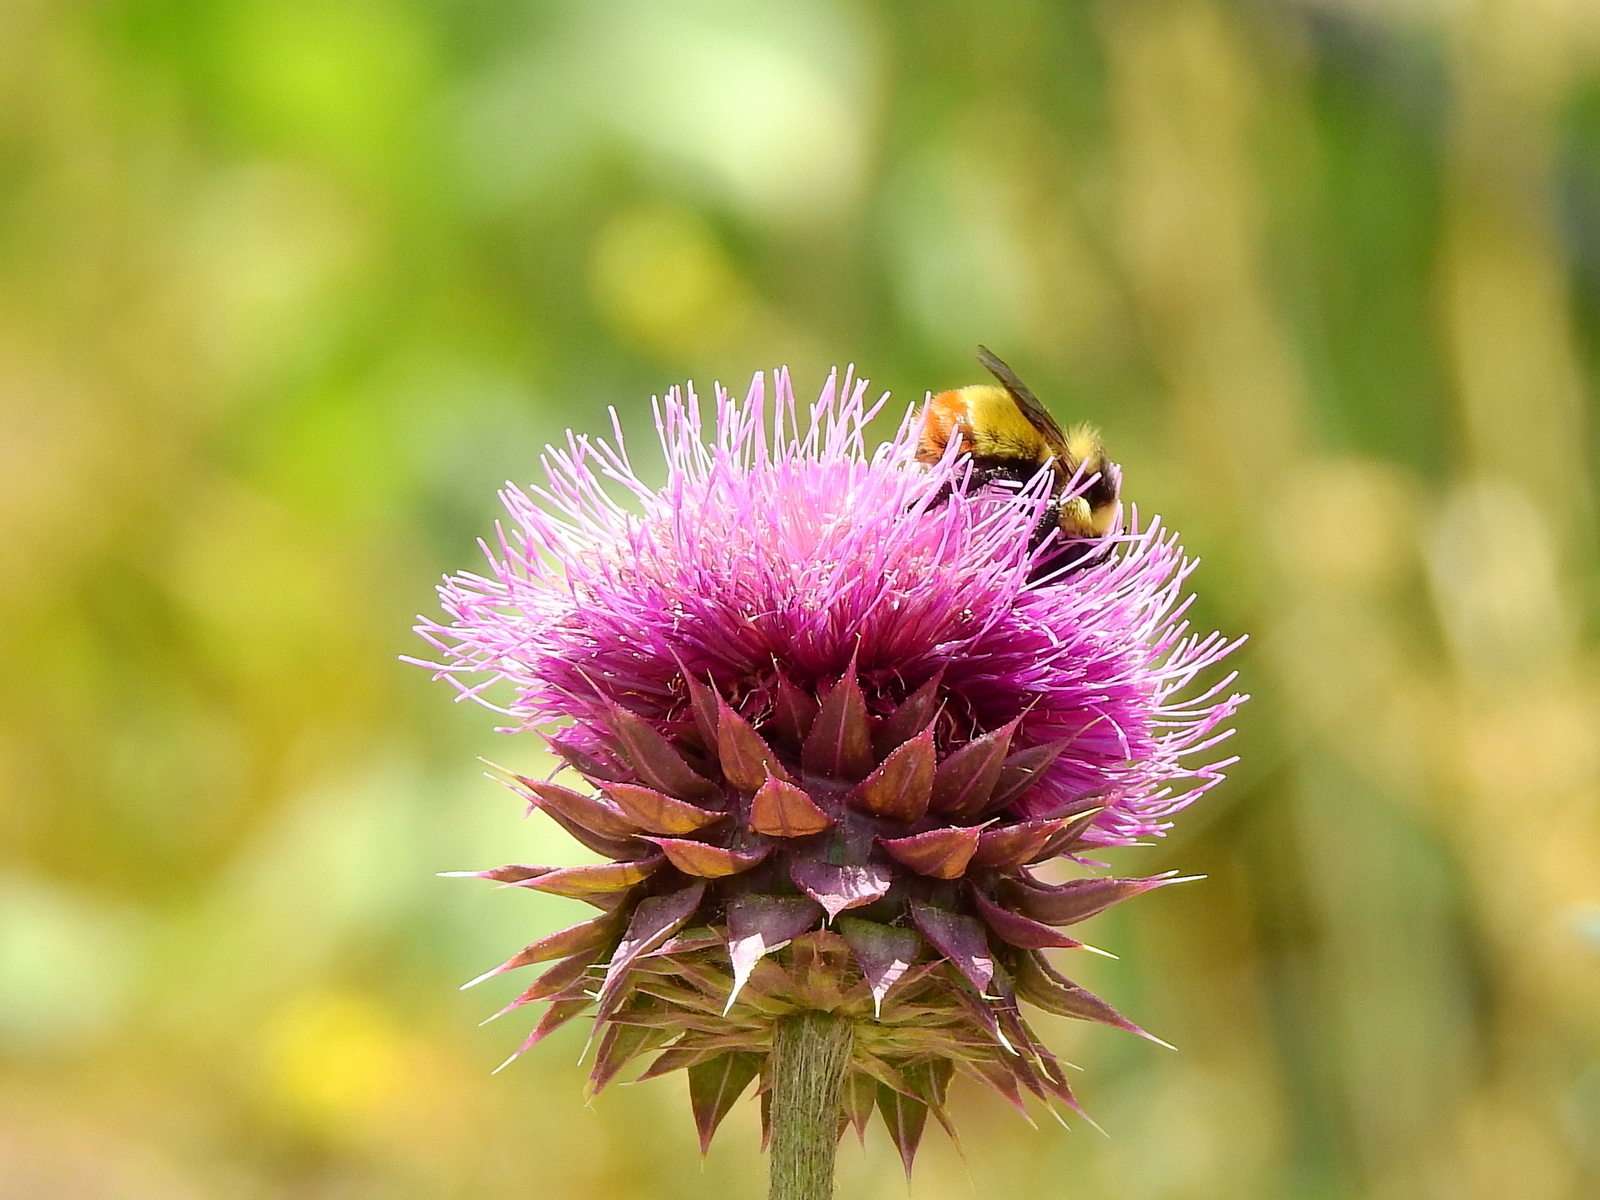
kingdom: Animalia
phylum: Arthropoda
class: Insecta
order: Hymenoptera
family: Apidae
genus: Bombus
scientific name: Bombus opifex
